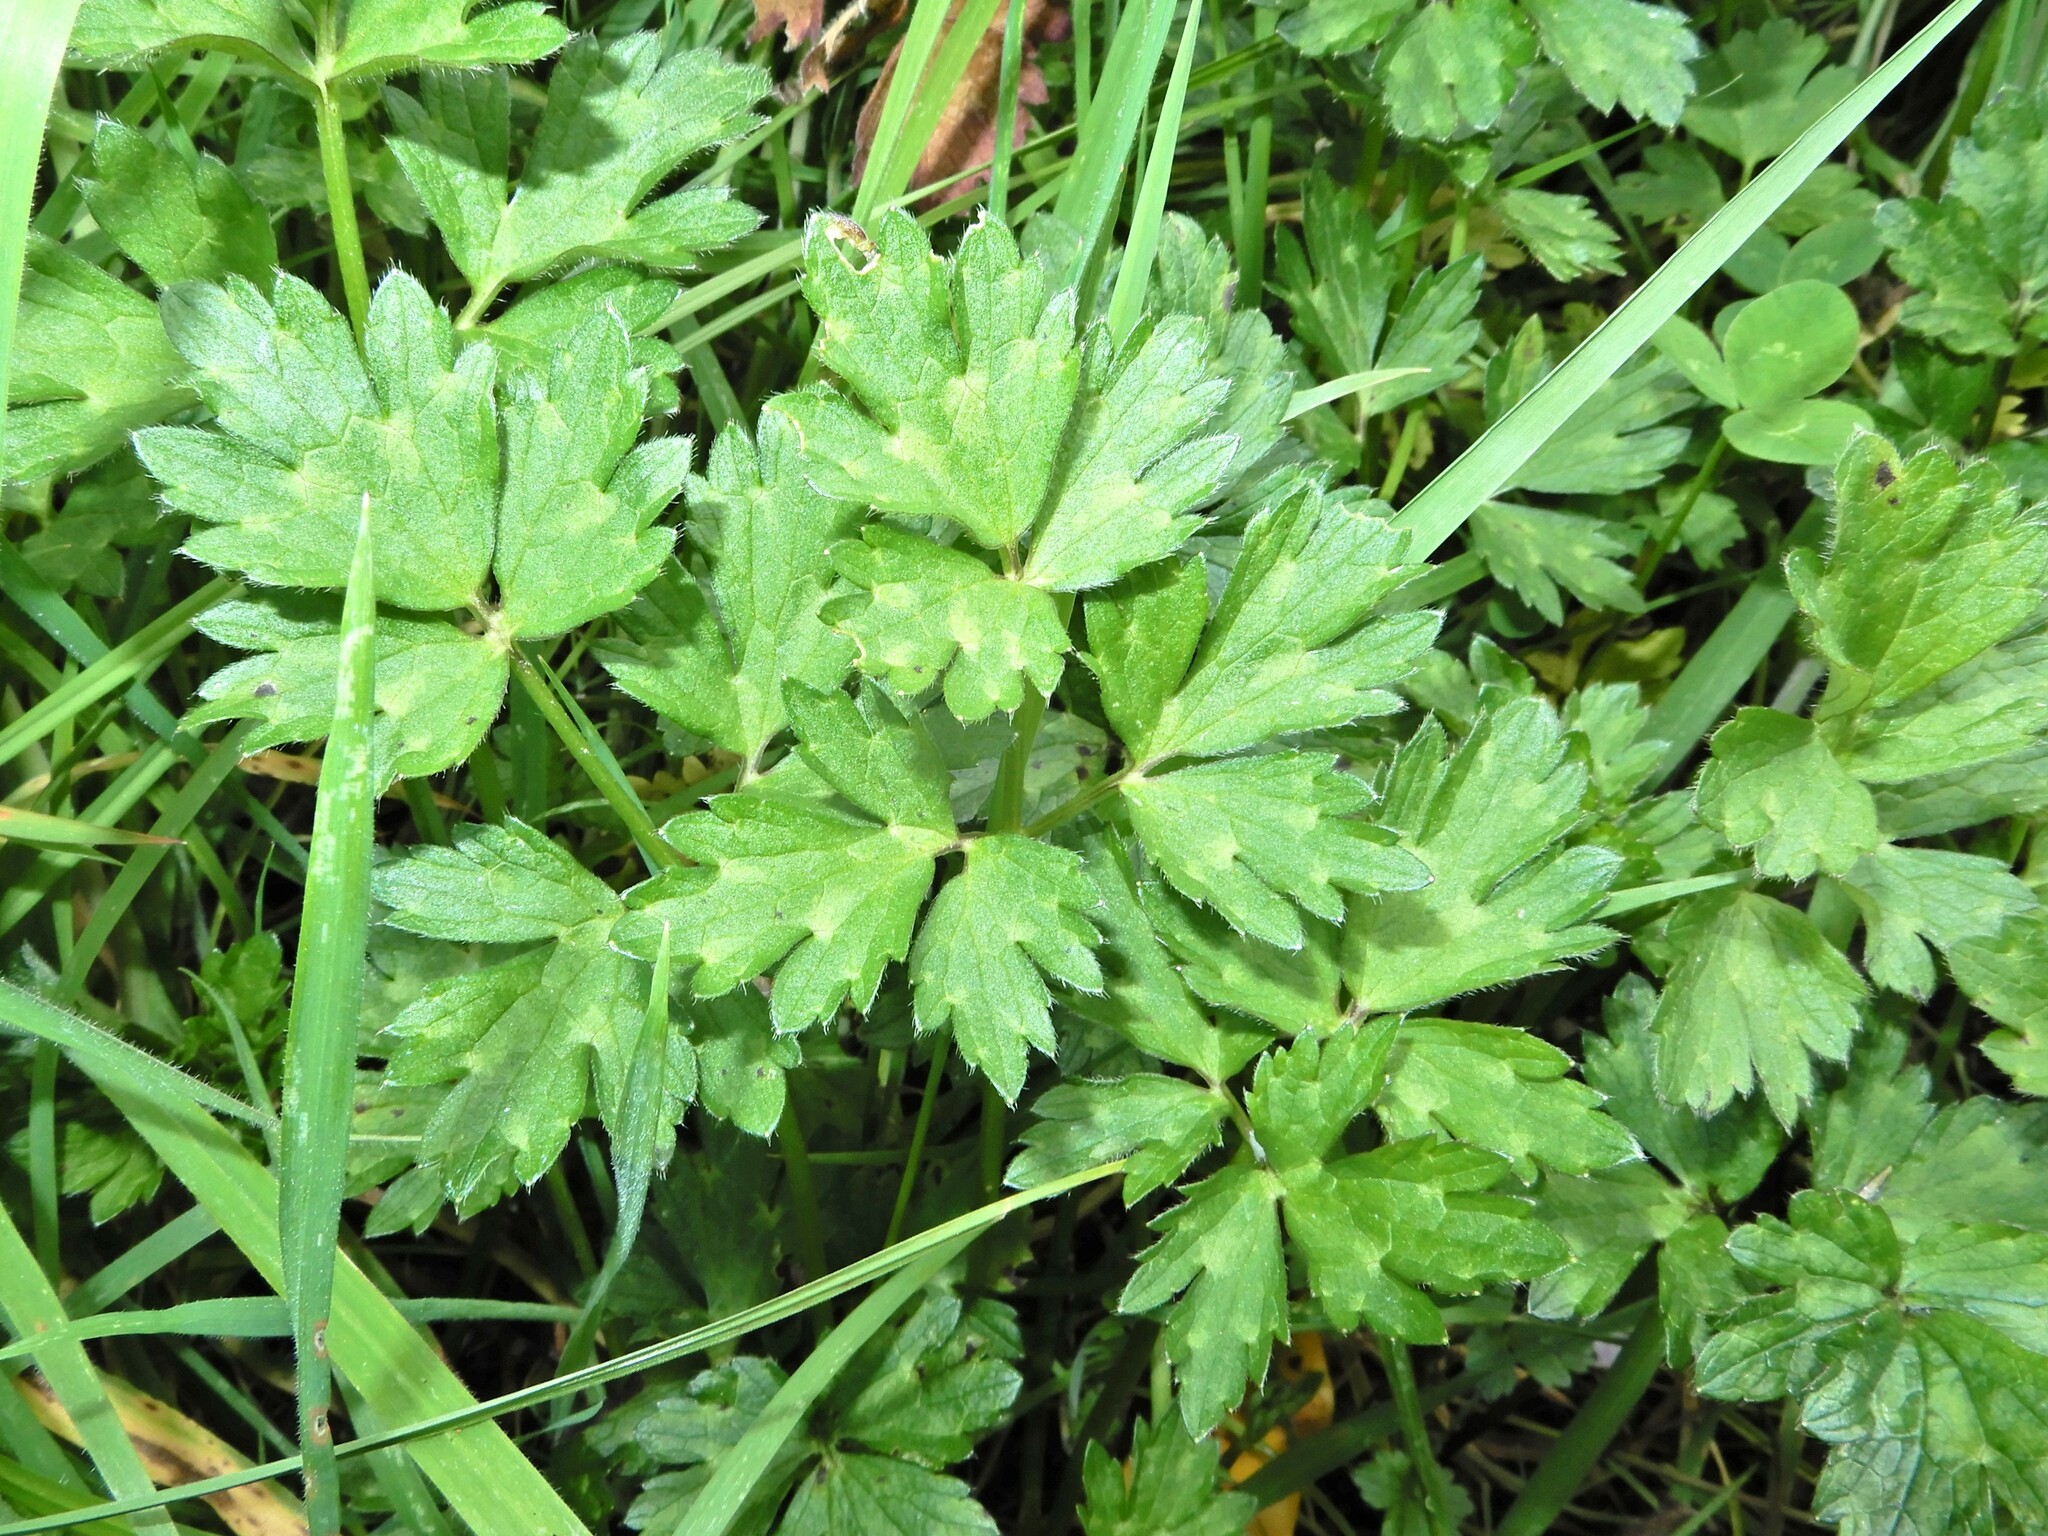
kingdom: Plantae
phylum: Tracheophyta
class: Magnoliopsida
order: Ranunculales
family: Ranunculaceae
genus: Ranunculus
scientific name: Ranunculus repens
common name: Creeping buttercup
